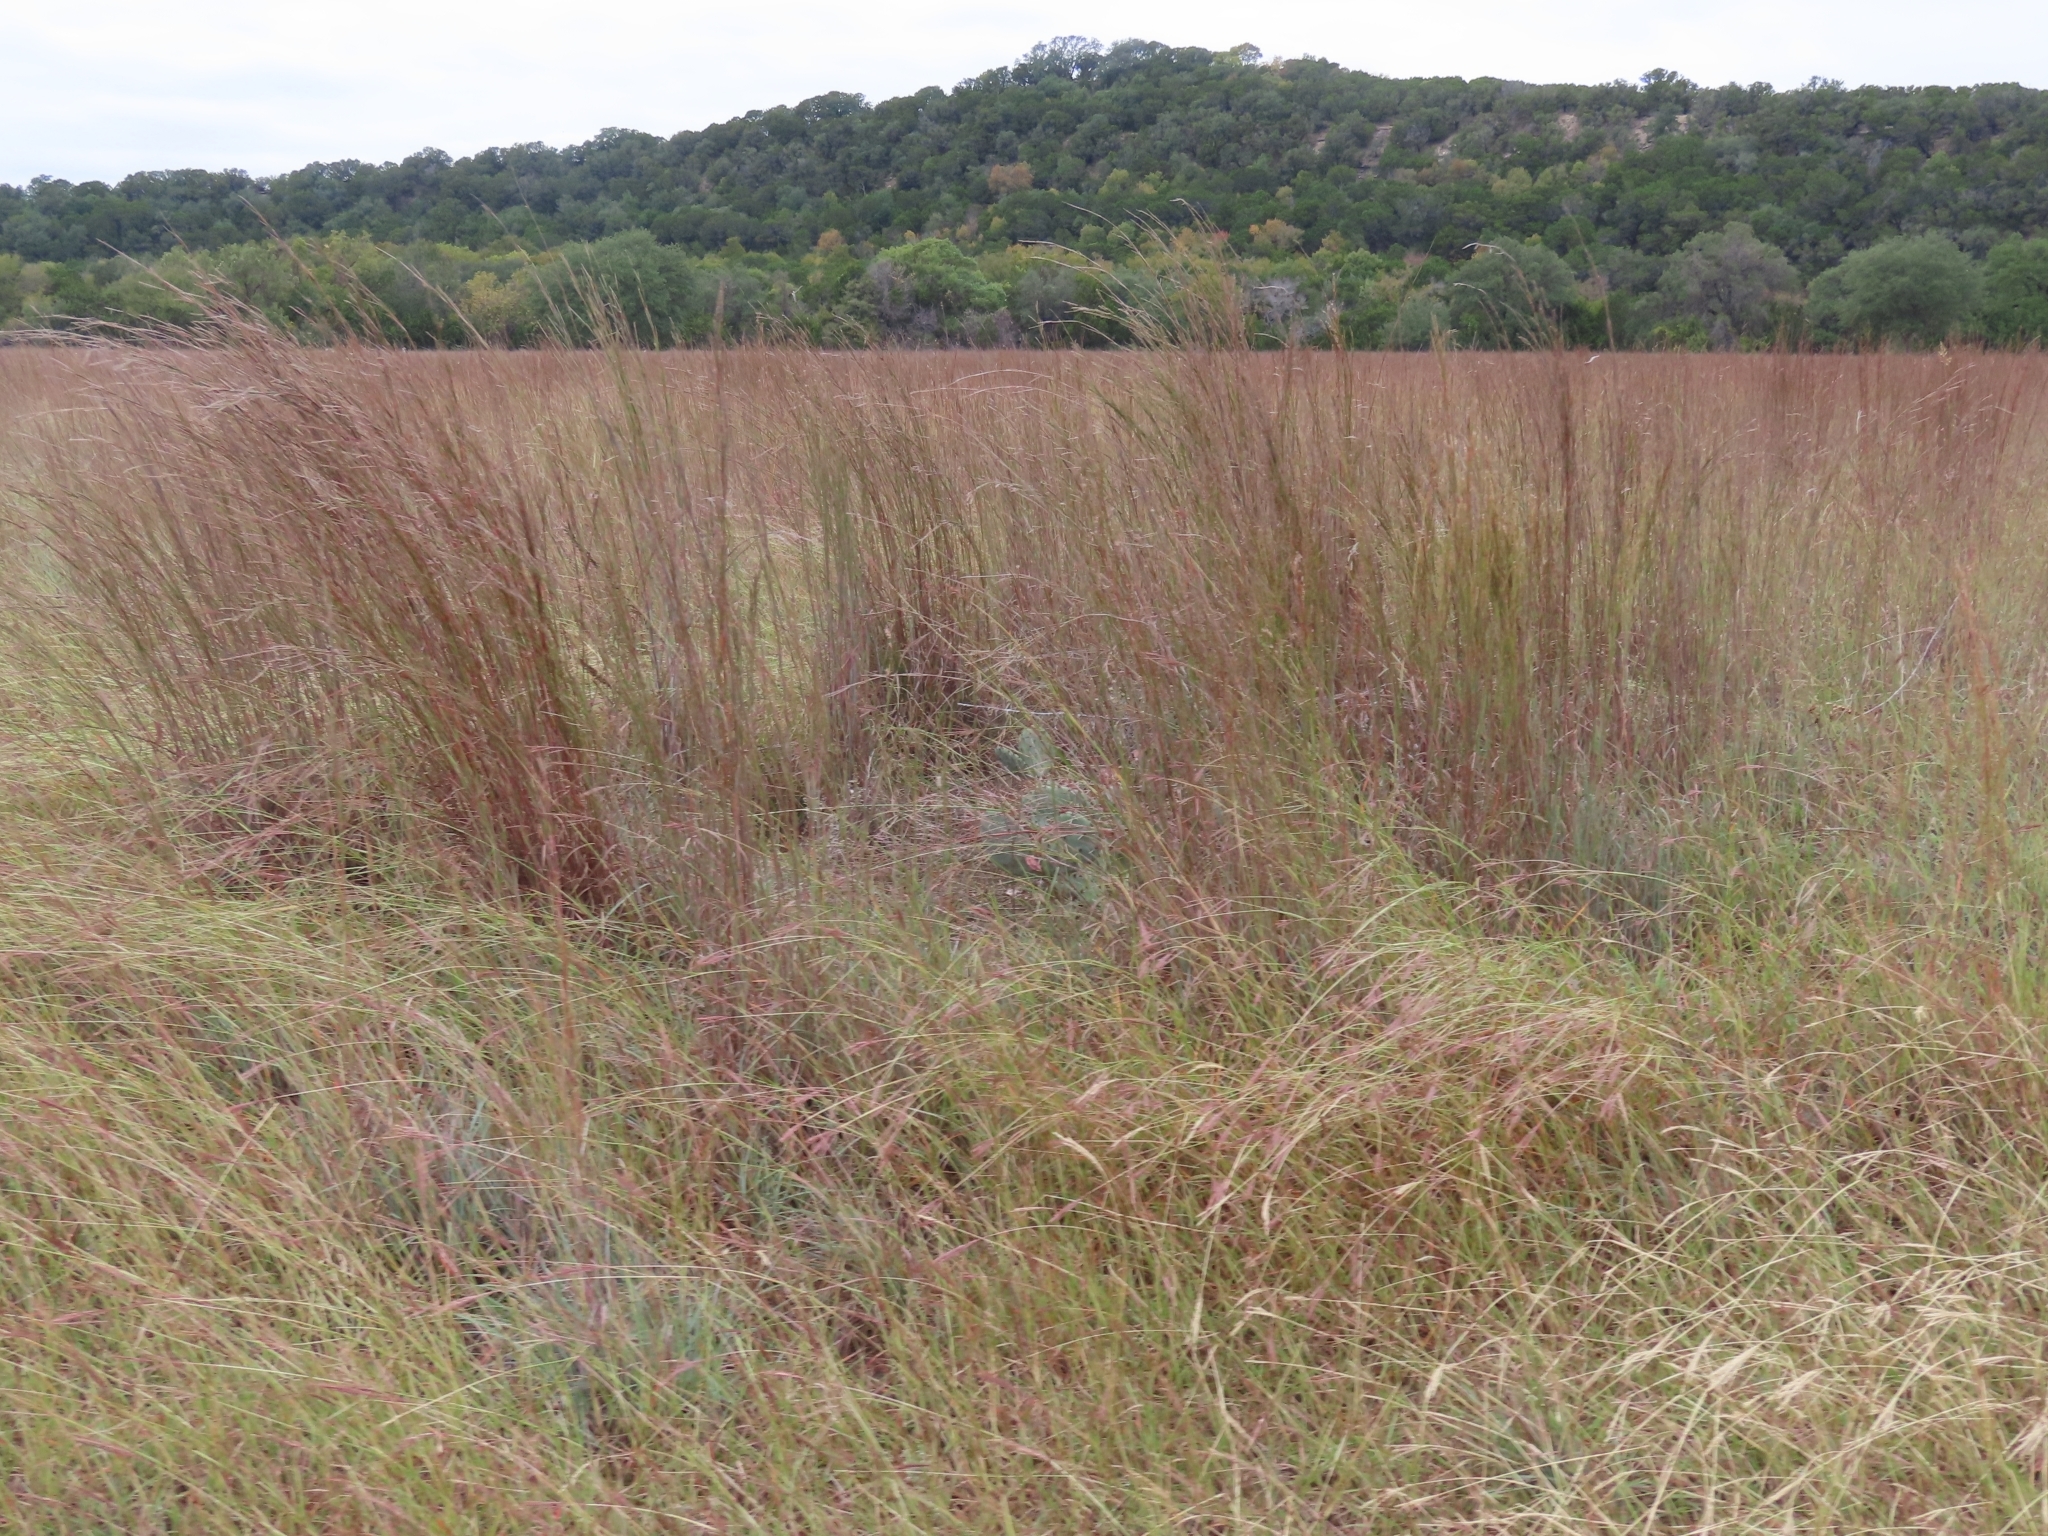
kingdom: Plantae
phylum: Tracheophyta
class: Liliopsida
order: Poales
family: Poaceae
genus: Schizachyrium
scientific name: Schizachyrium scoparium
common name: Little bluestem
